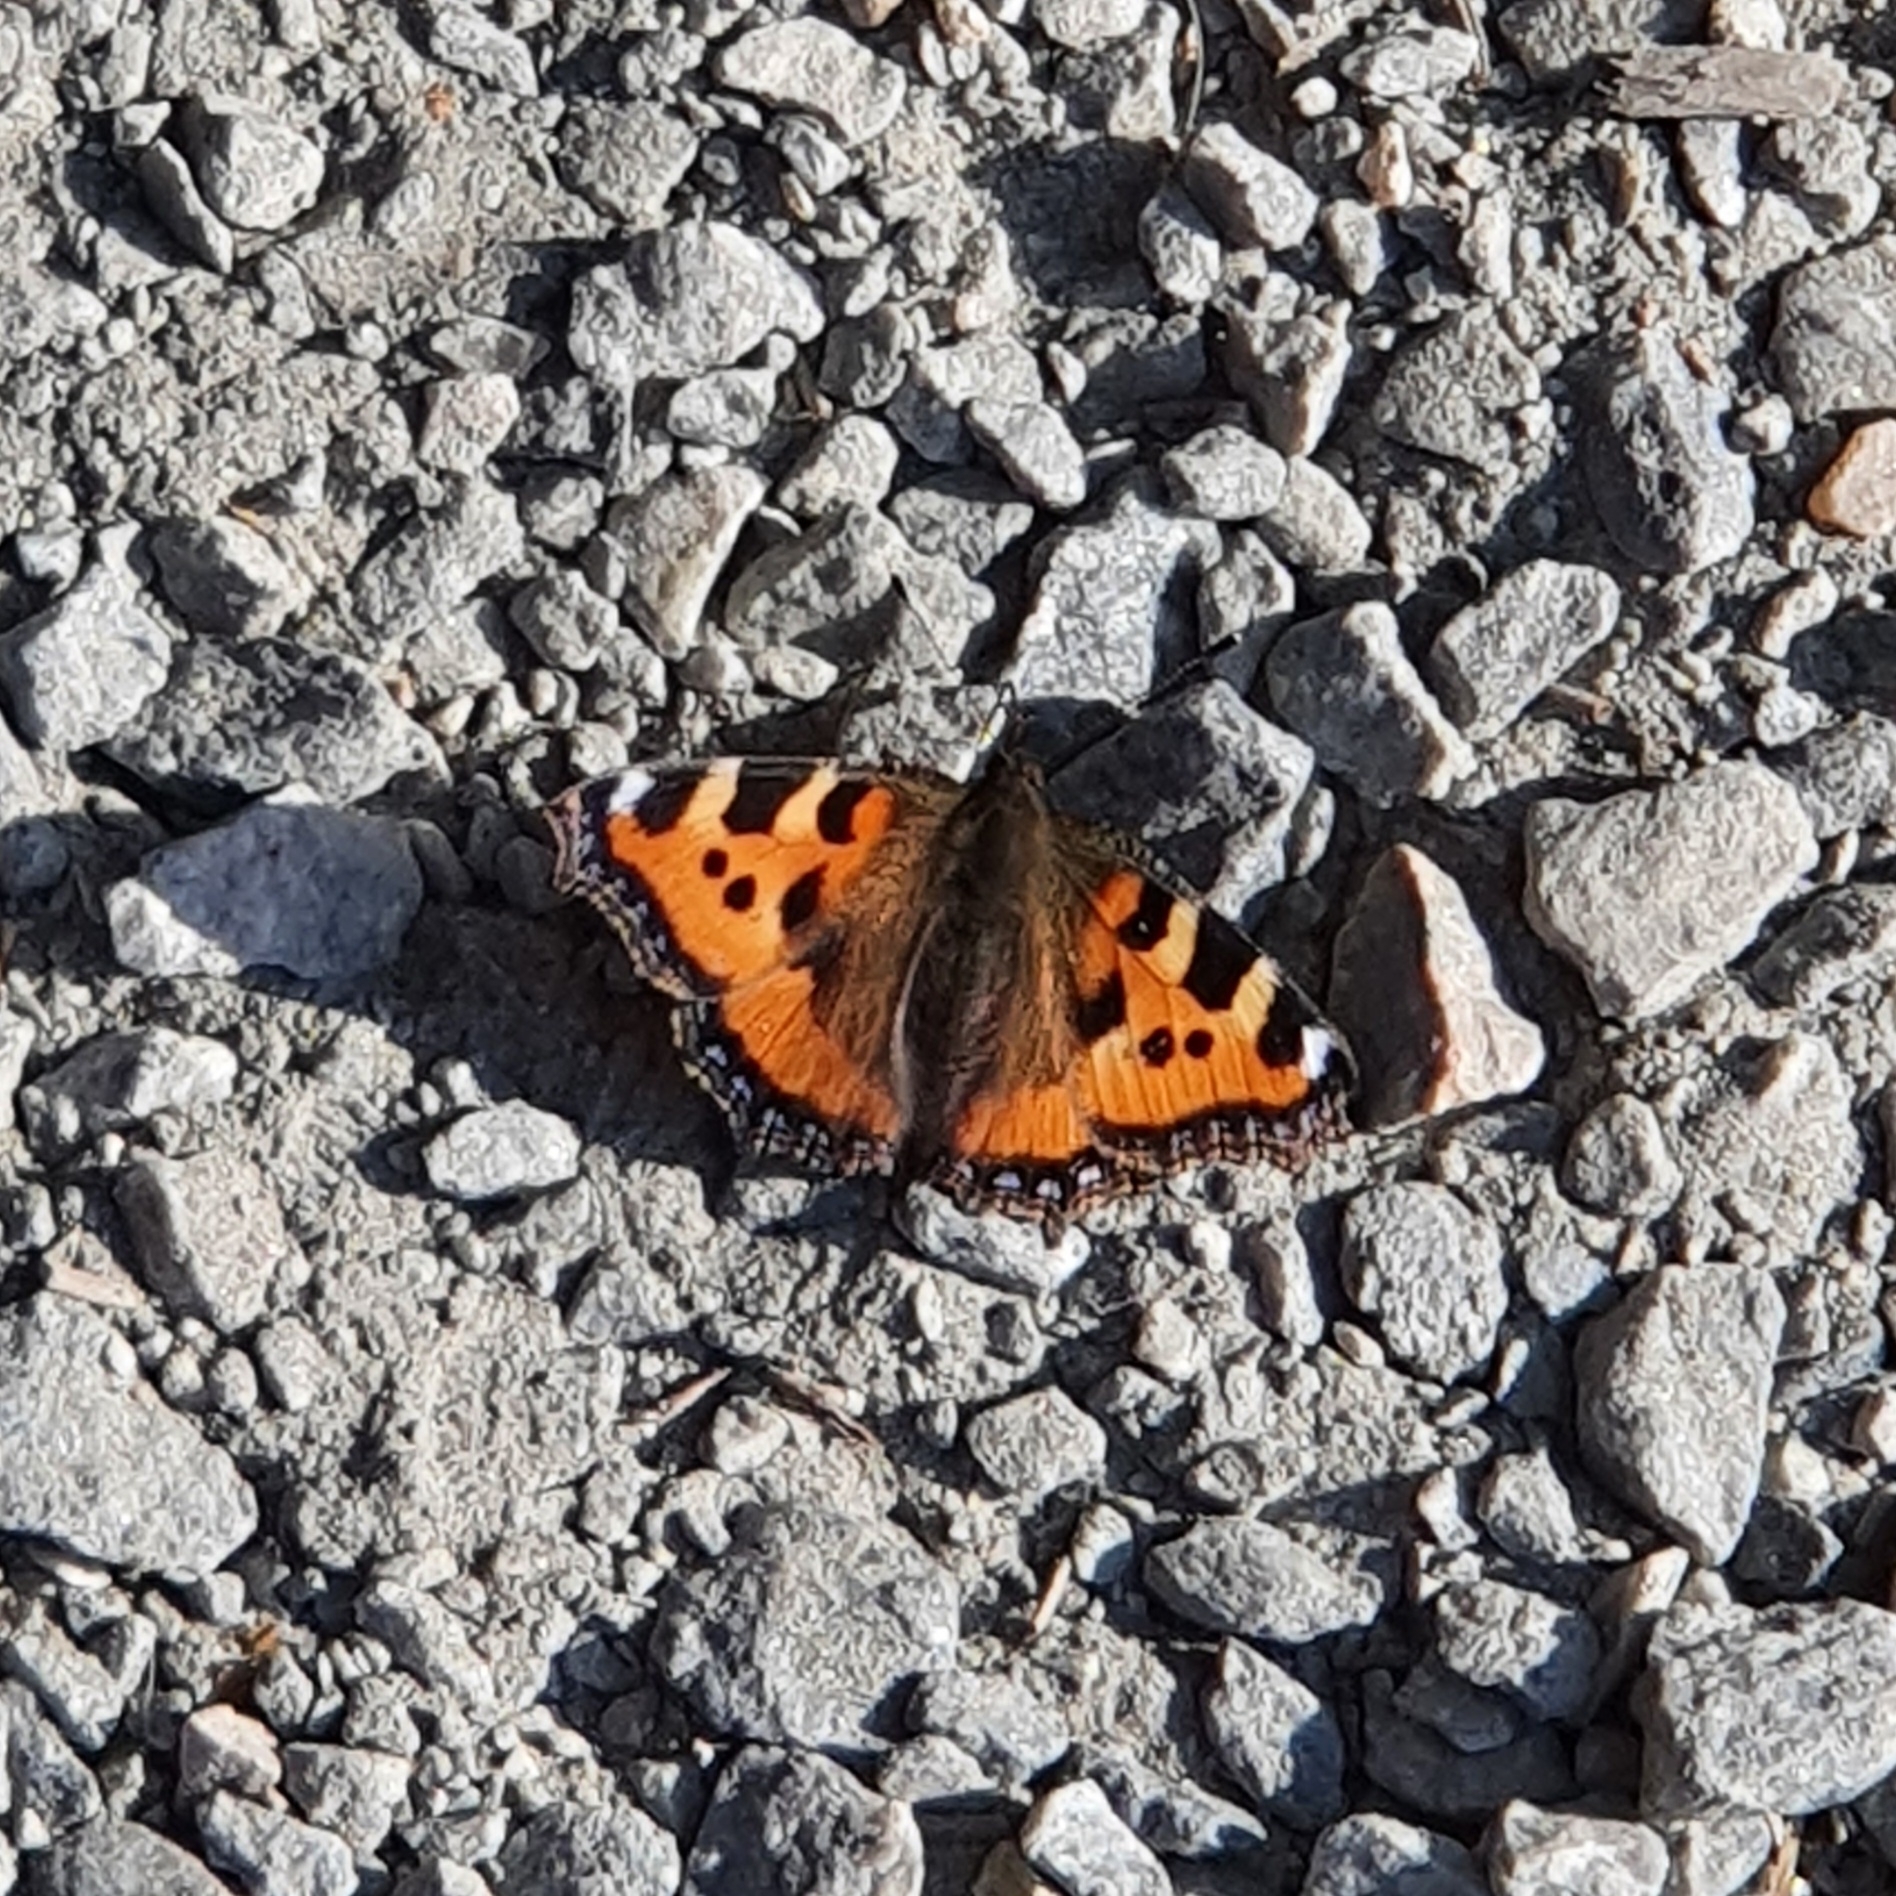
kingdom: Animalia
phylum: Arthropoda
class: Insecta
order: Lepidoptera
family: Nymphalidae
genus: Aglais
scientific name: Aglais urticae
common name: Small tortoiseshell
